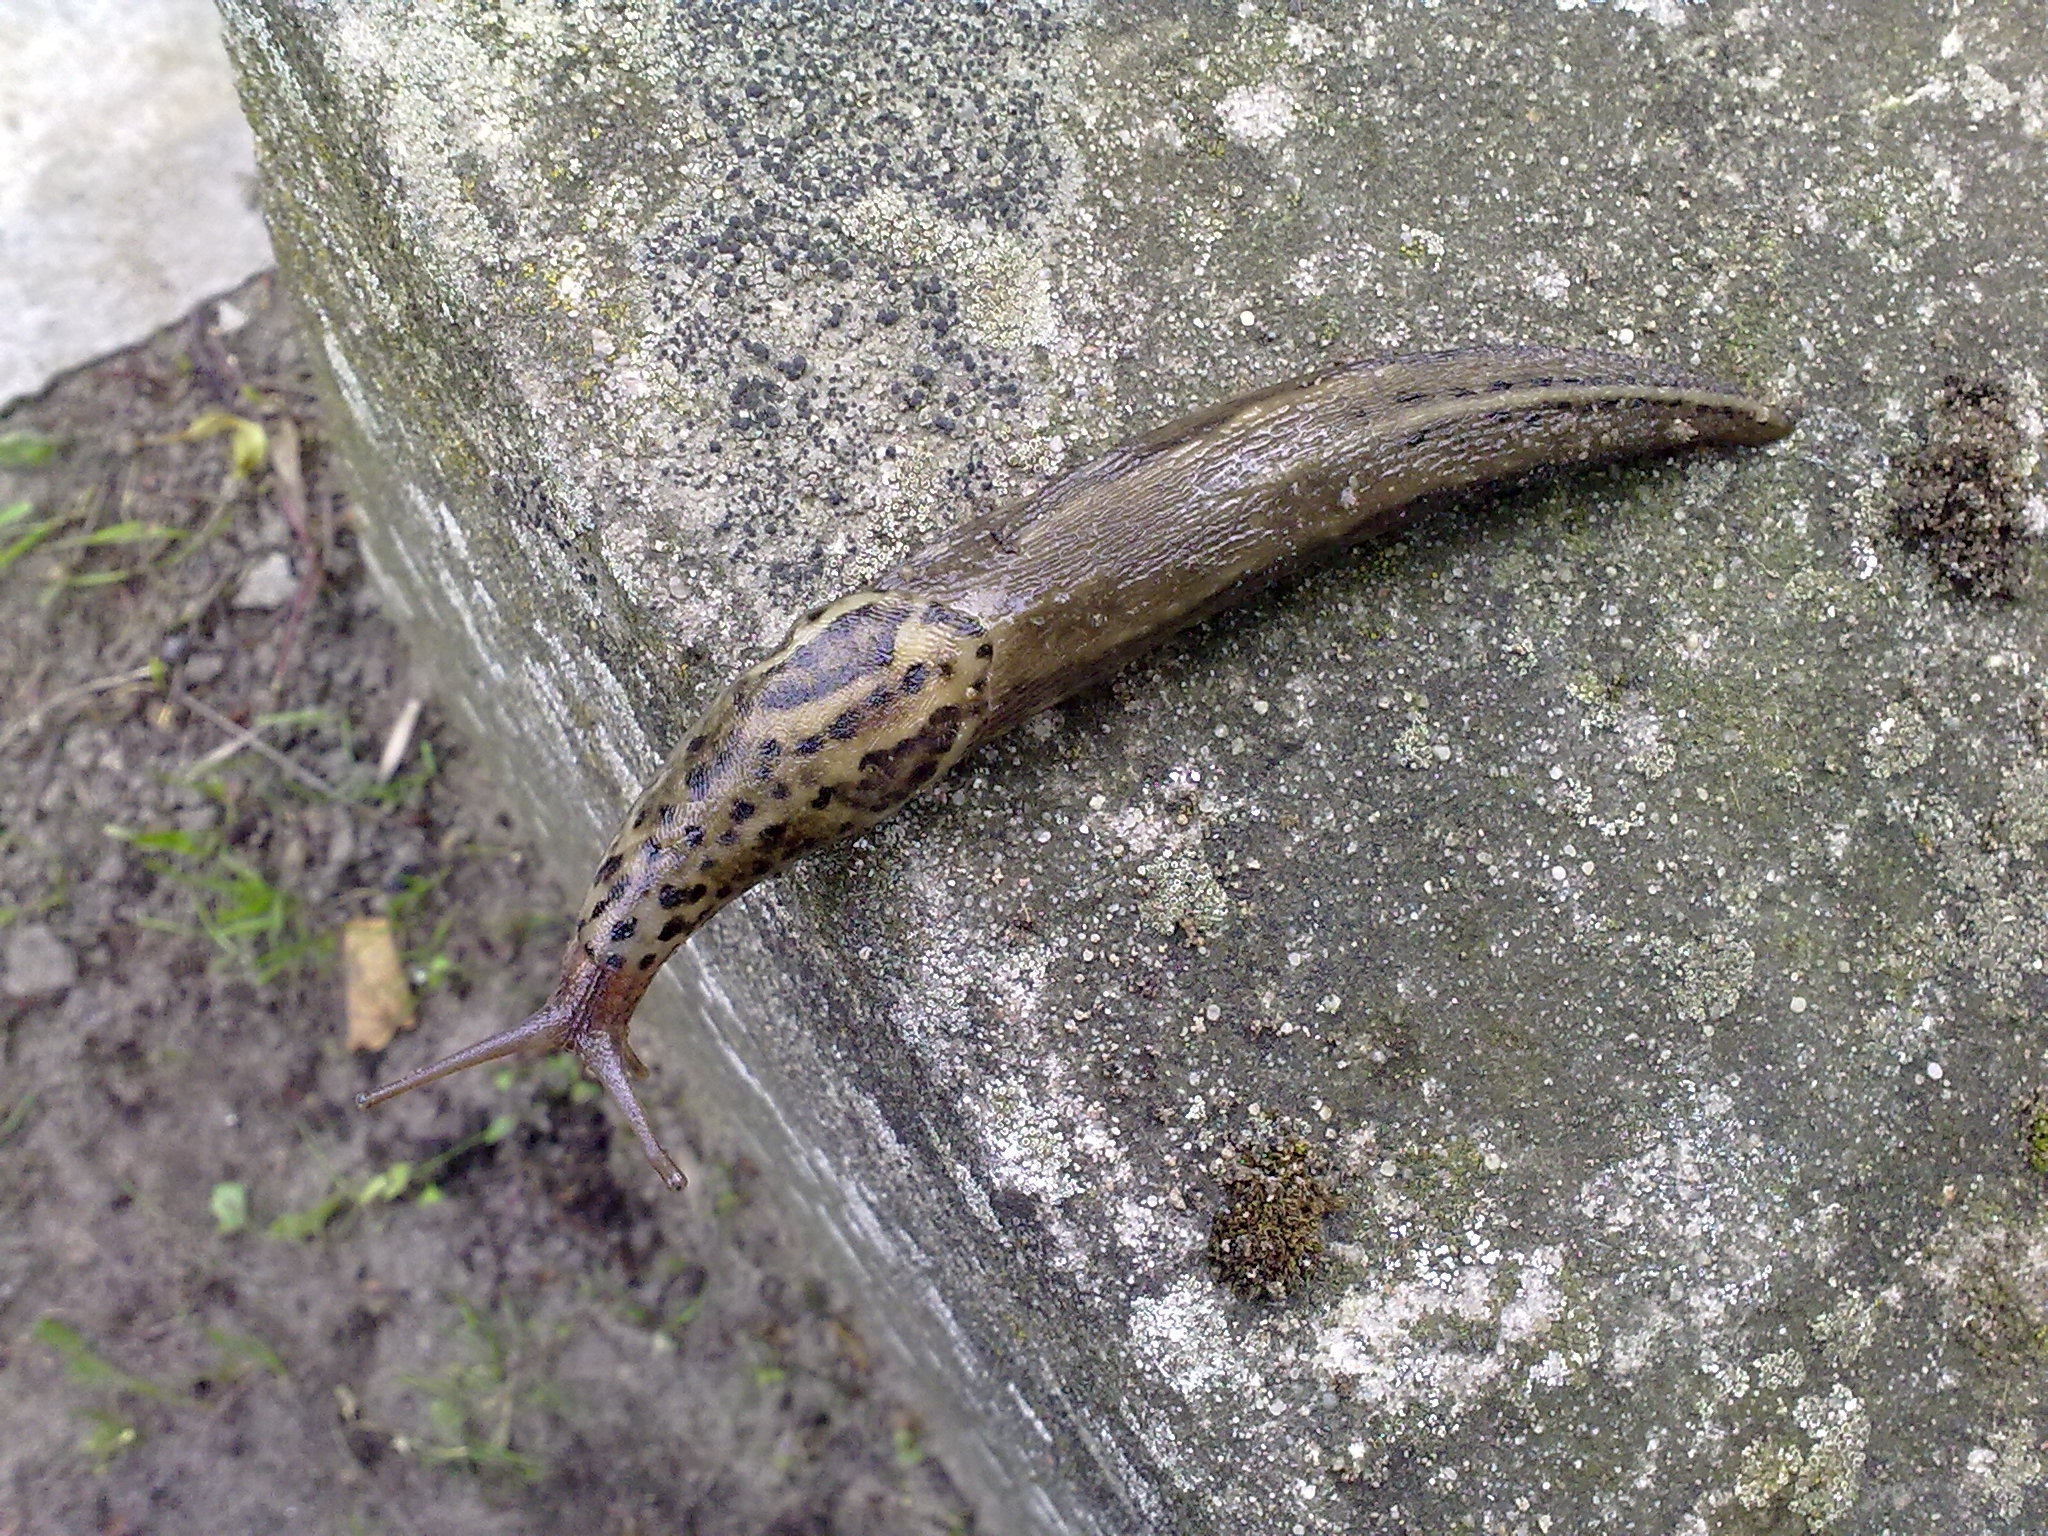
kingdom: Animalia
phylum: Mollusca
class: Gastropoda
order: Stylommatophora
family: Limacidae
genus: Limax
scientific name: Limax maximus
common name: Great grey slug
